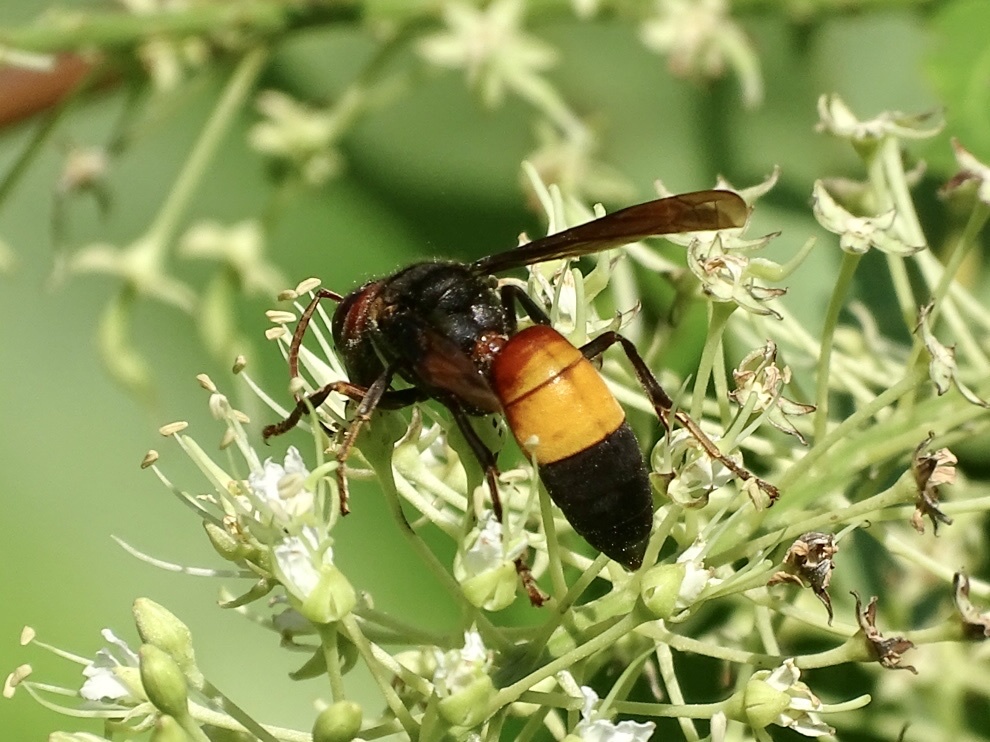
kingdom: Animalia
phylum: Arthropoda
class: Insecta
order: Hymenoptera
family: Vespidae
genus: Vespa
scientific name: Vespa affinis
